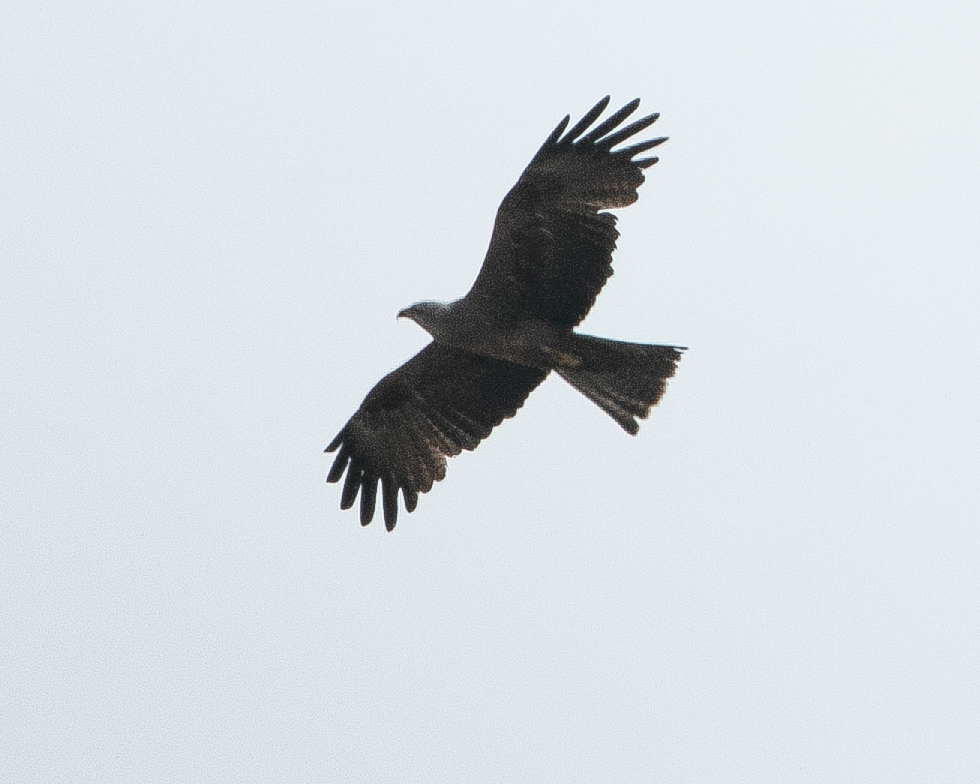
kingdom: Animalia
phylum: Chordata
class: Aves
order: Accipitriformes
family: Accipitridae
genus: Milvus
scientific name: Milvus migrans
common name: Black kite
